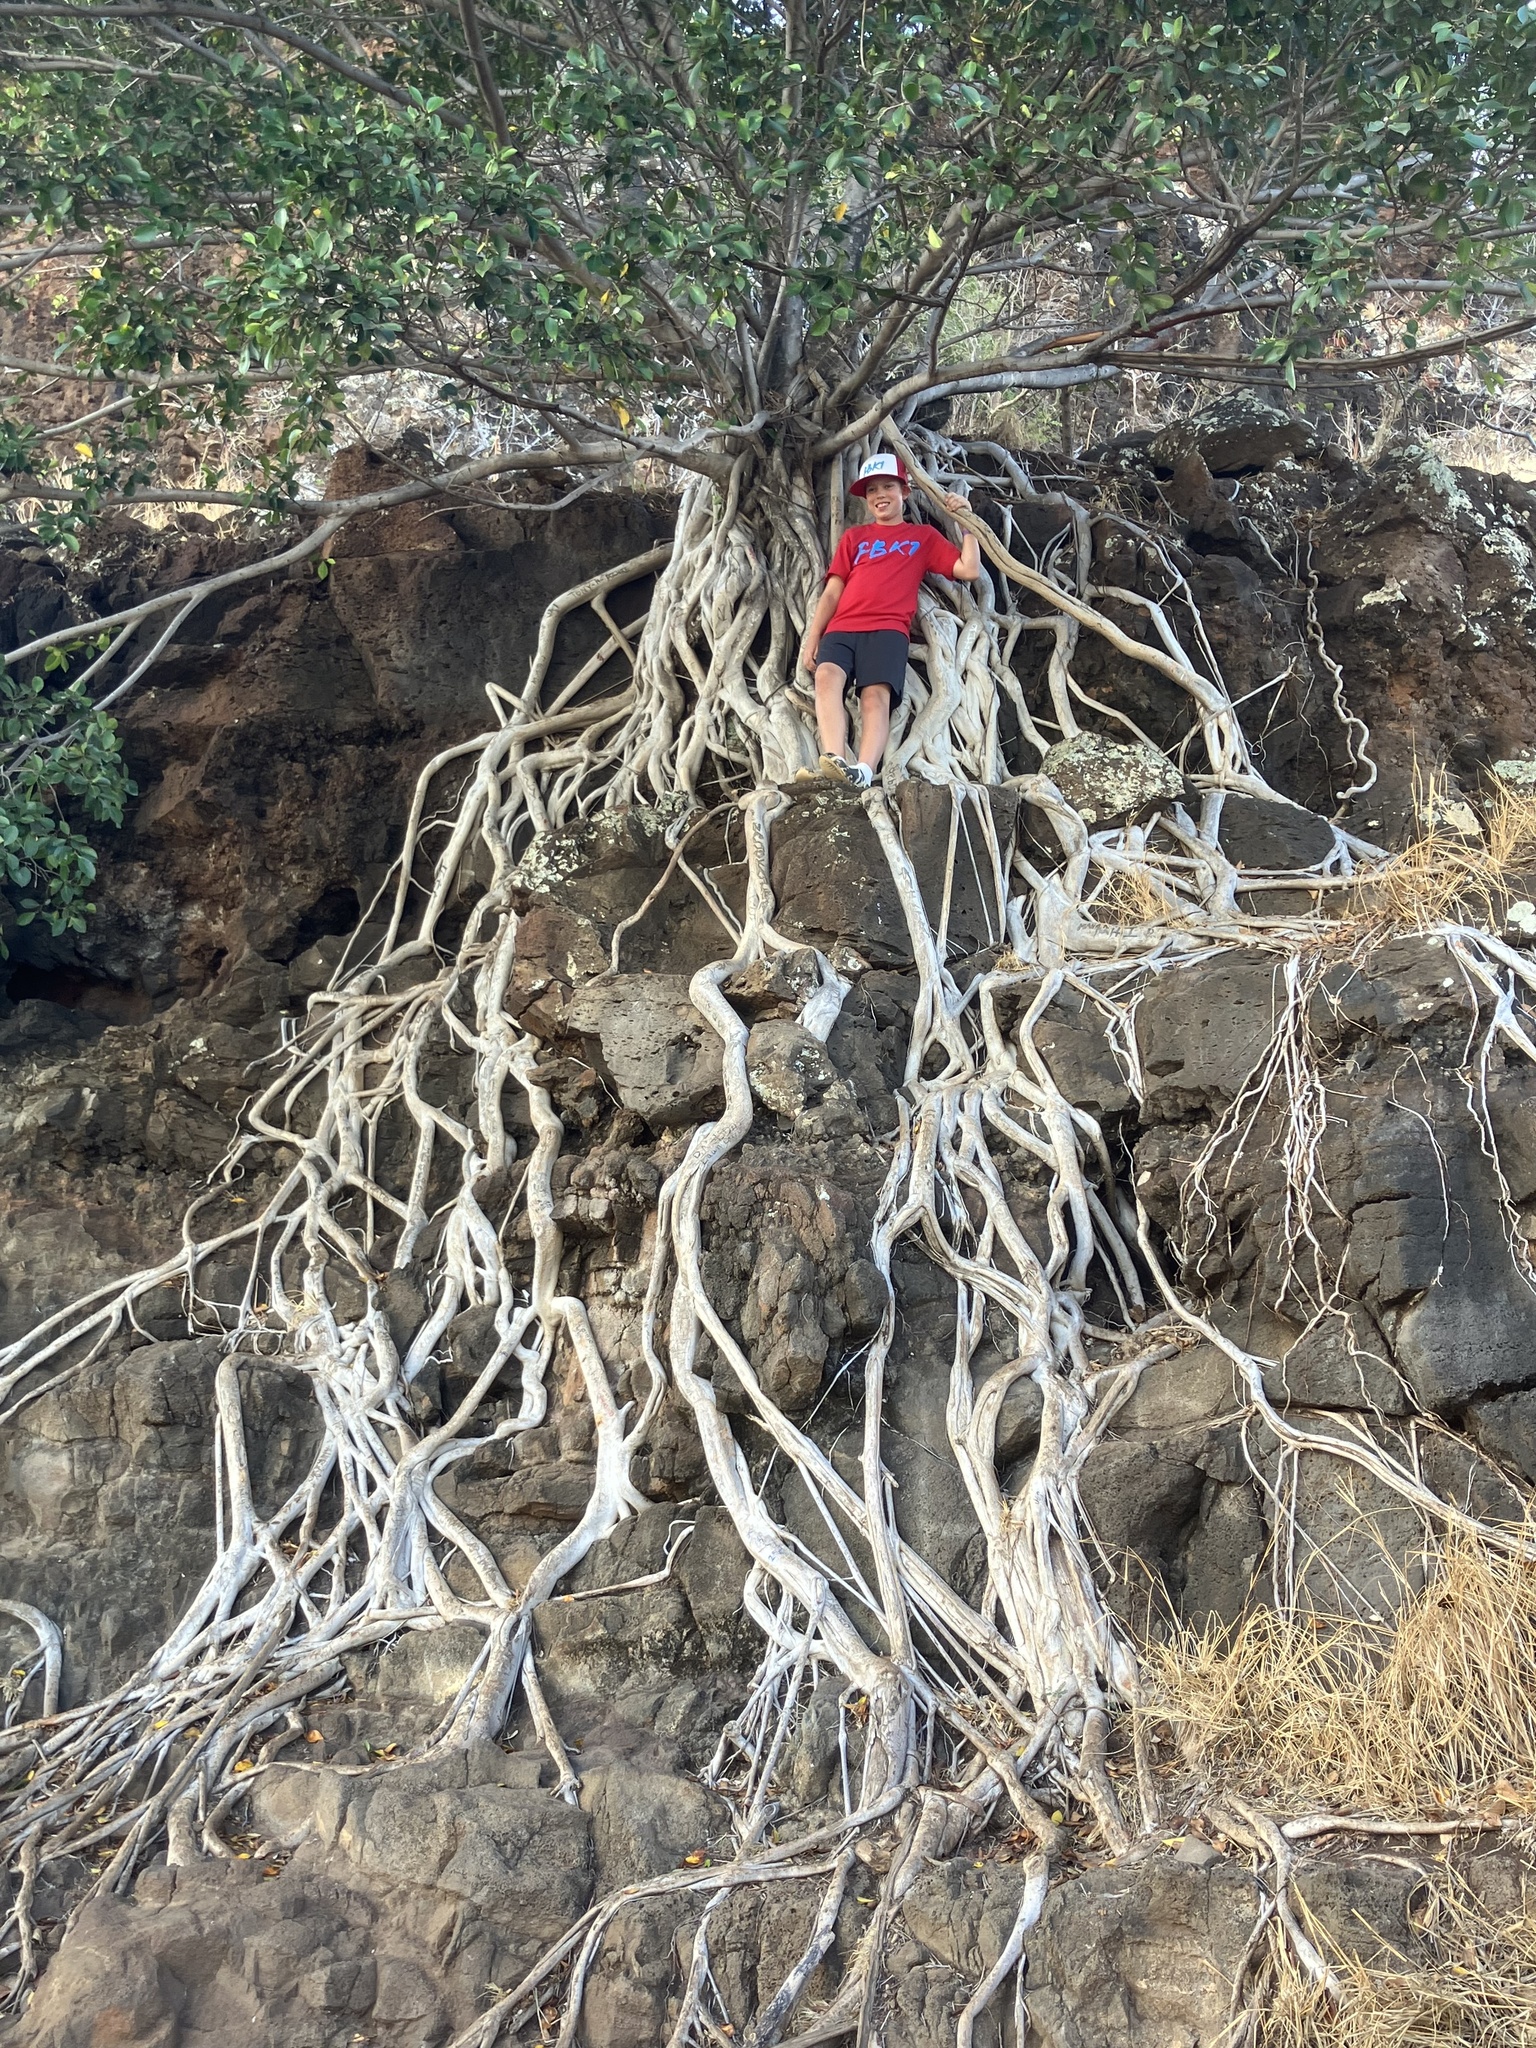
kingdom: Plantae
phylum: Tracheophyta
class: Magnoliopsida
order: Rosales
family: Moraceae
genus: Ficus
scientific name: Ficus microcarpa
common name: Chinese banyan
